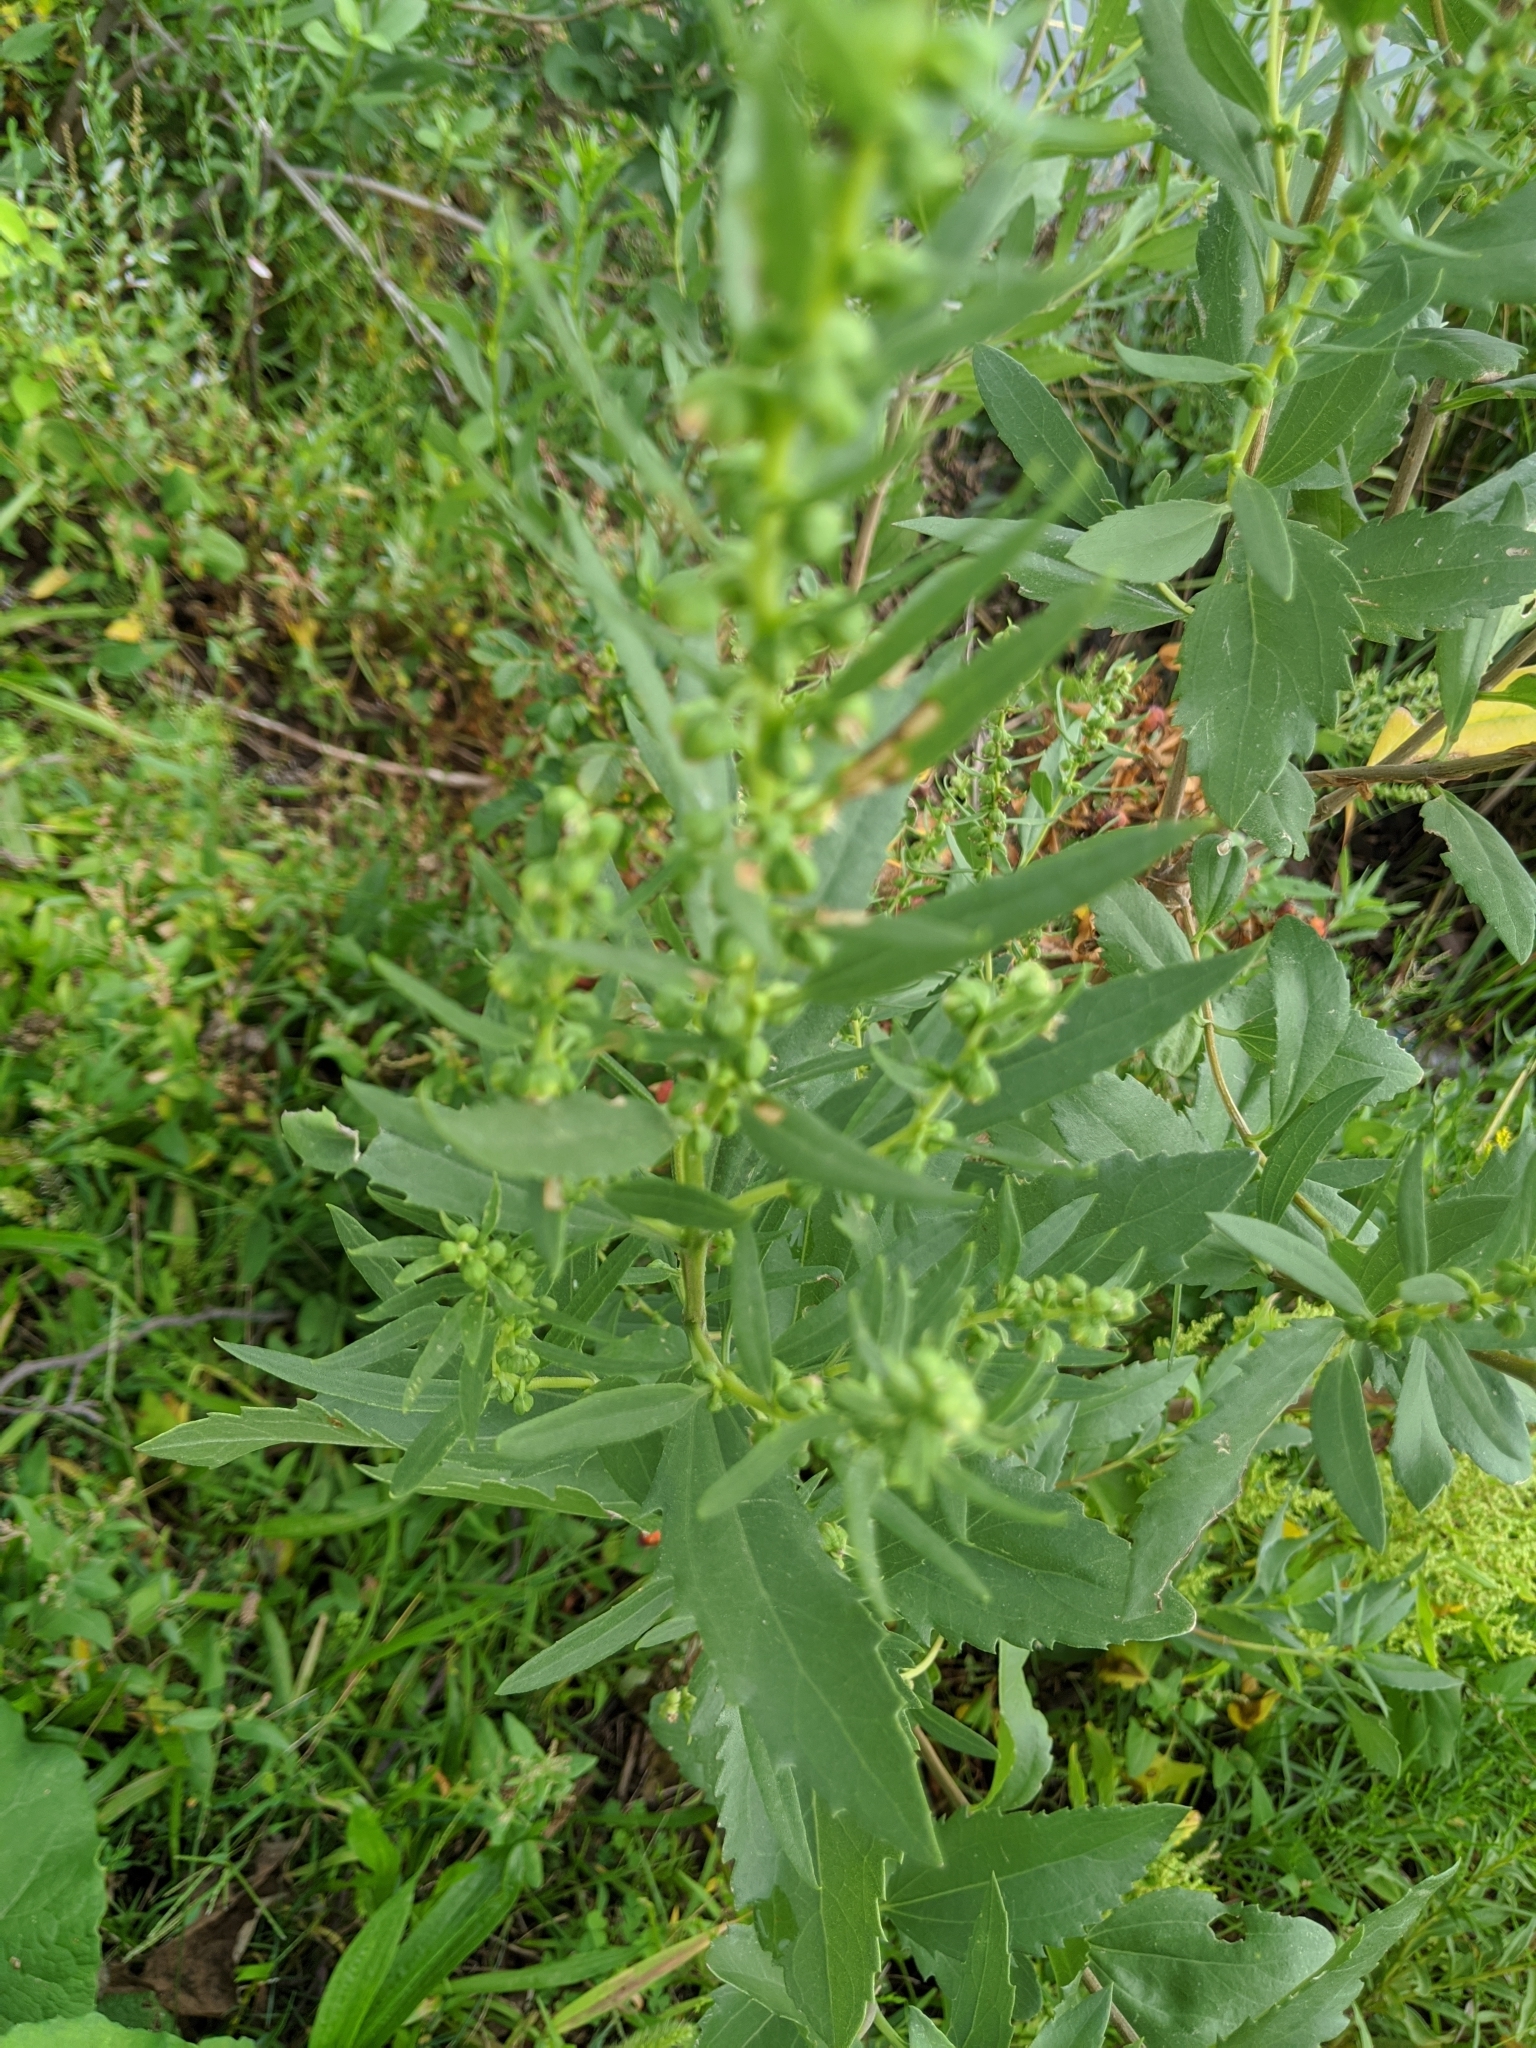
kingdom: Plantae
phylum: Tracheophyta
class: Magnoliopsida
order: Asterales
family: Asteraceae
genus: Iva
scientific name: Iva frutescens
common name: Big-leaved marsh-elder
